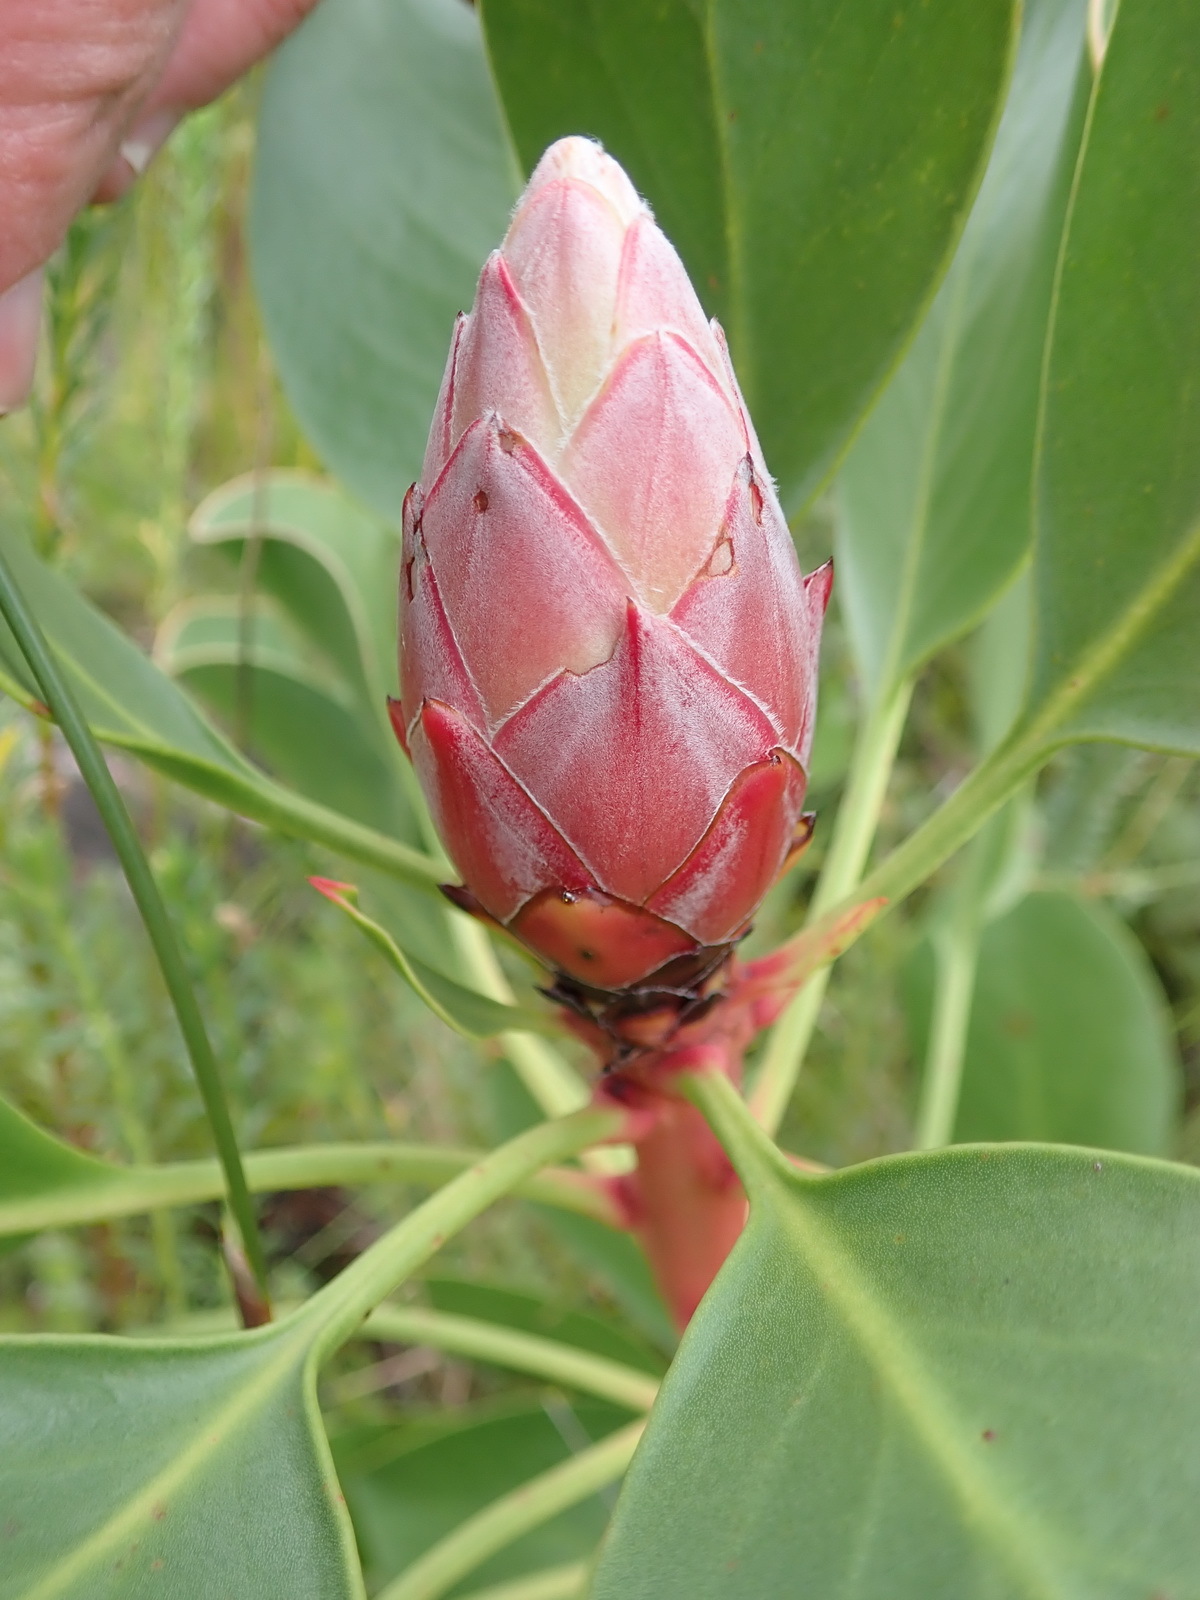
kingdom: Plantae
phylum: Tracheophyta
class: Magnoliopsida
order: Proteales
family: Proteaceae
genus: Protea
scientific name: Protea cynaroides
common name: King protea
